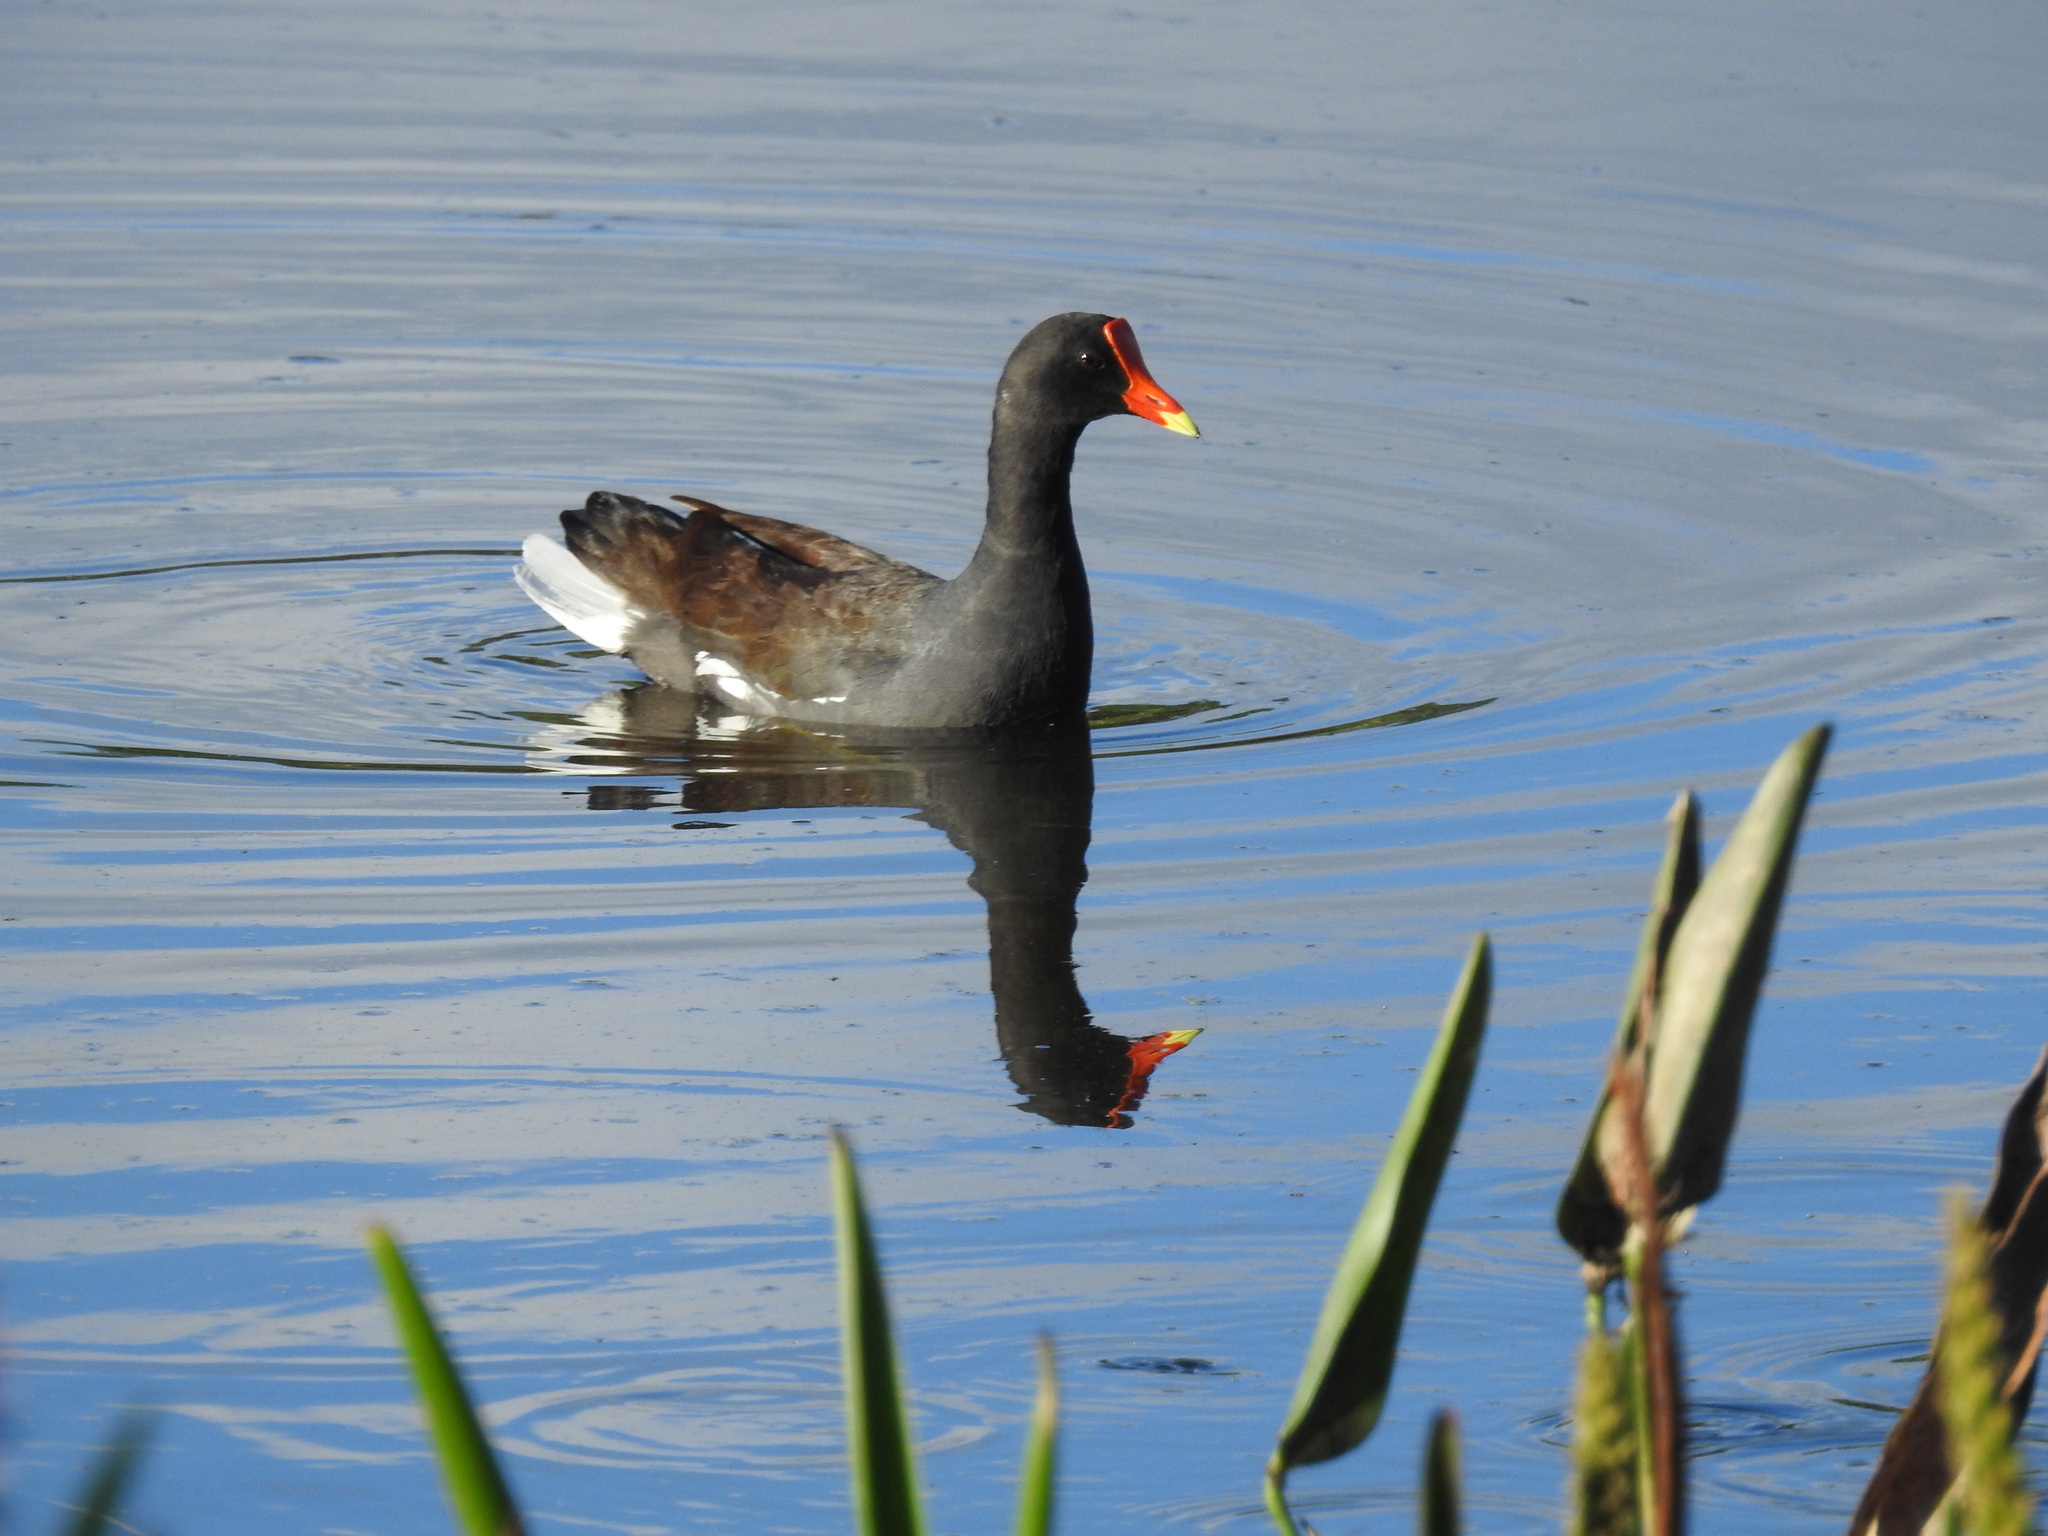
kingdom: Animalia
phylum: Chordata
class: Aves
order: Gruiformes
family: Rallidae
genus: Gallinula
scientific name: Gallinula chloropus
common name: Common moorhen
